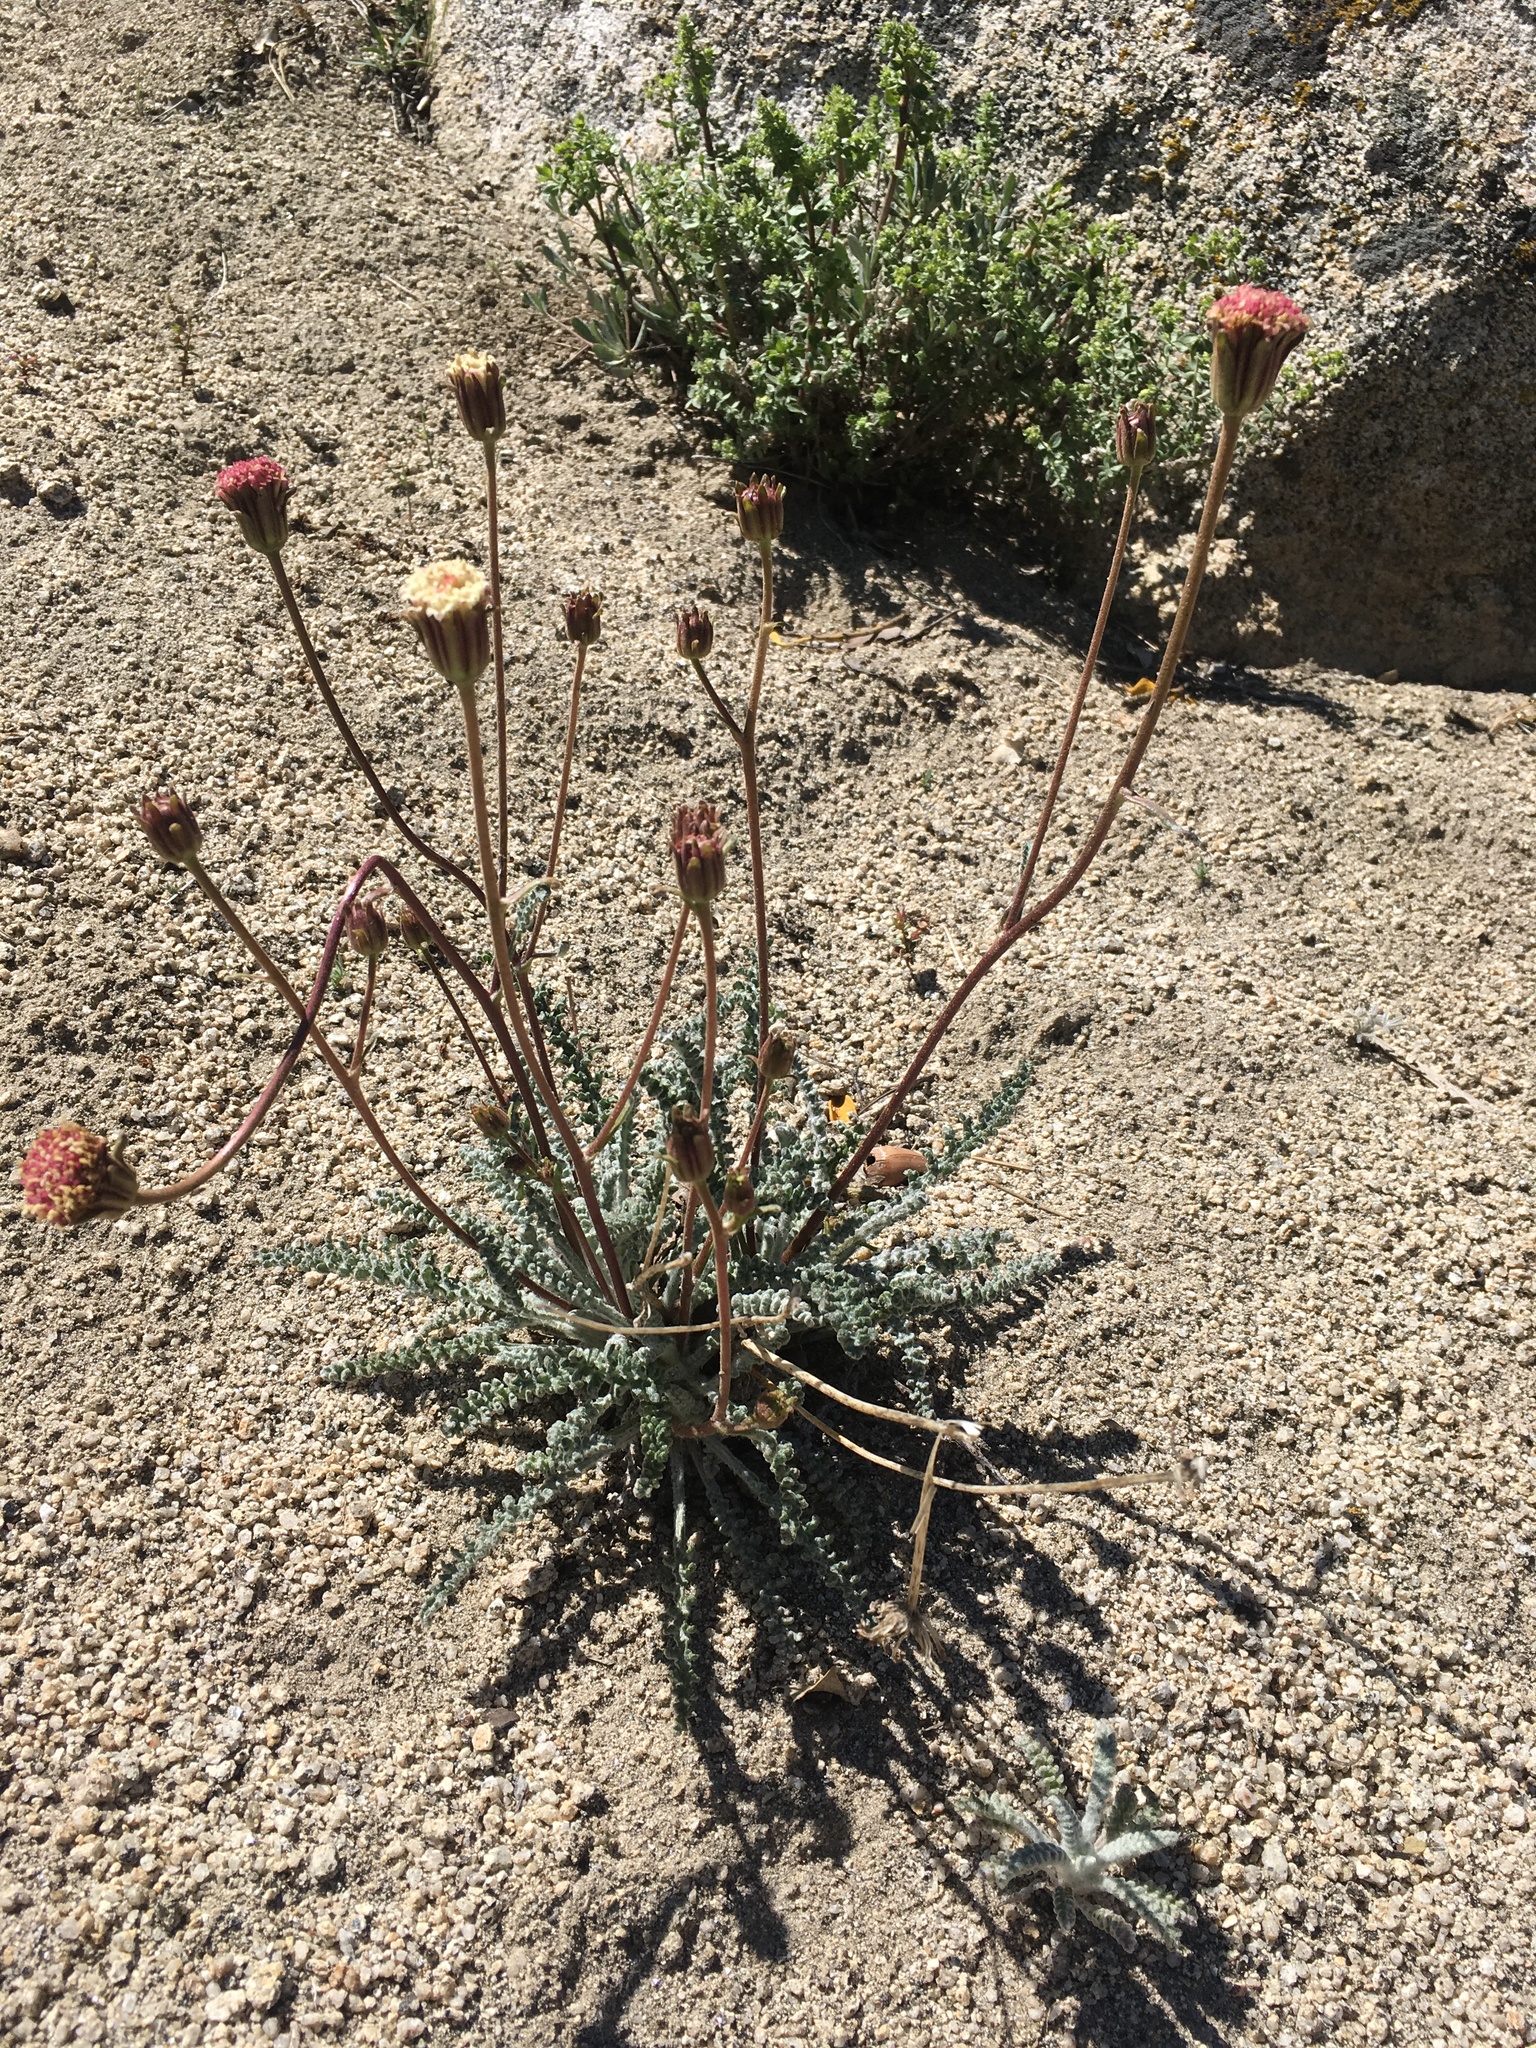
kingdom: Plantae
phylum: Tracheophyta
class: Magnoliopsida
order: Asterales
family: Asteraceae
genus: Chaenactis
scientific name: Chaenactis santolinoides
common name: Santolina pincushion
